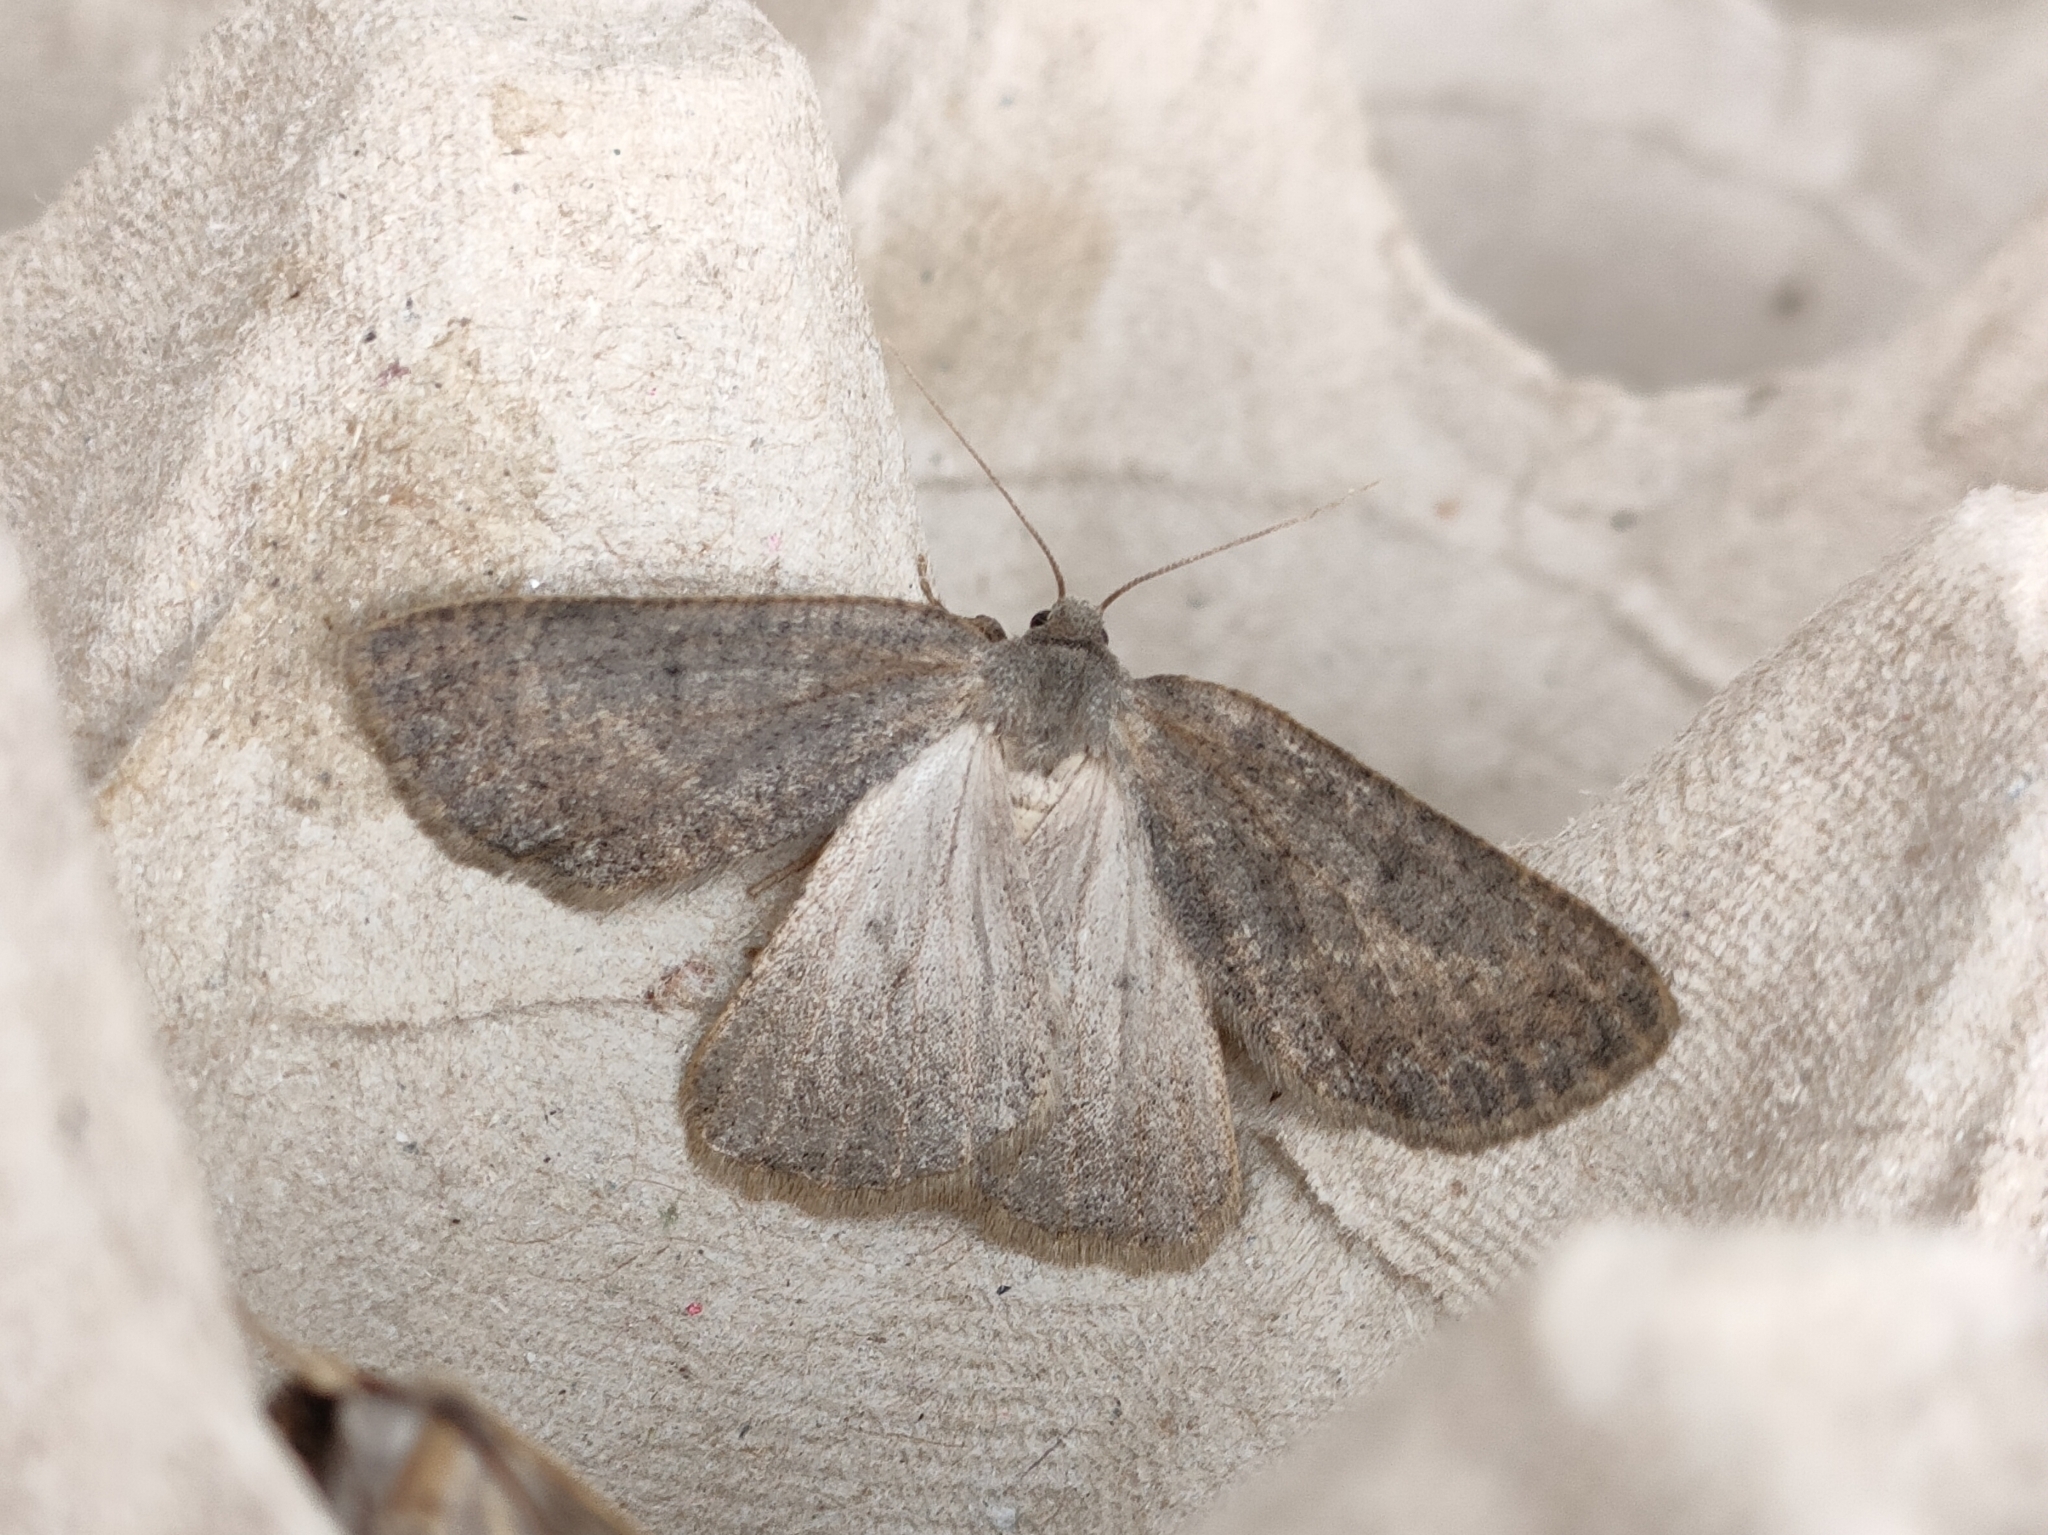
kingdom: Animalia
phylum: Arthropoda
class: Insecta
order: Lepidoptera
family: Geometridae
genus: Onychora
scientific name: Onychora agaritharia
